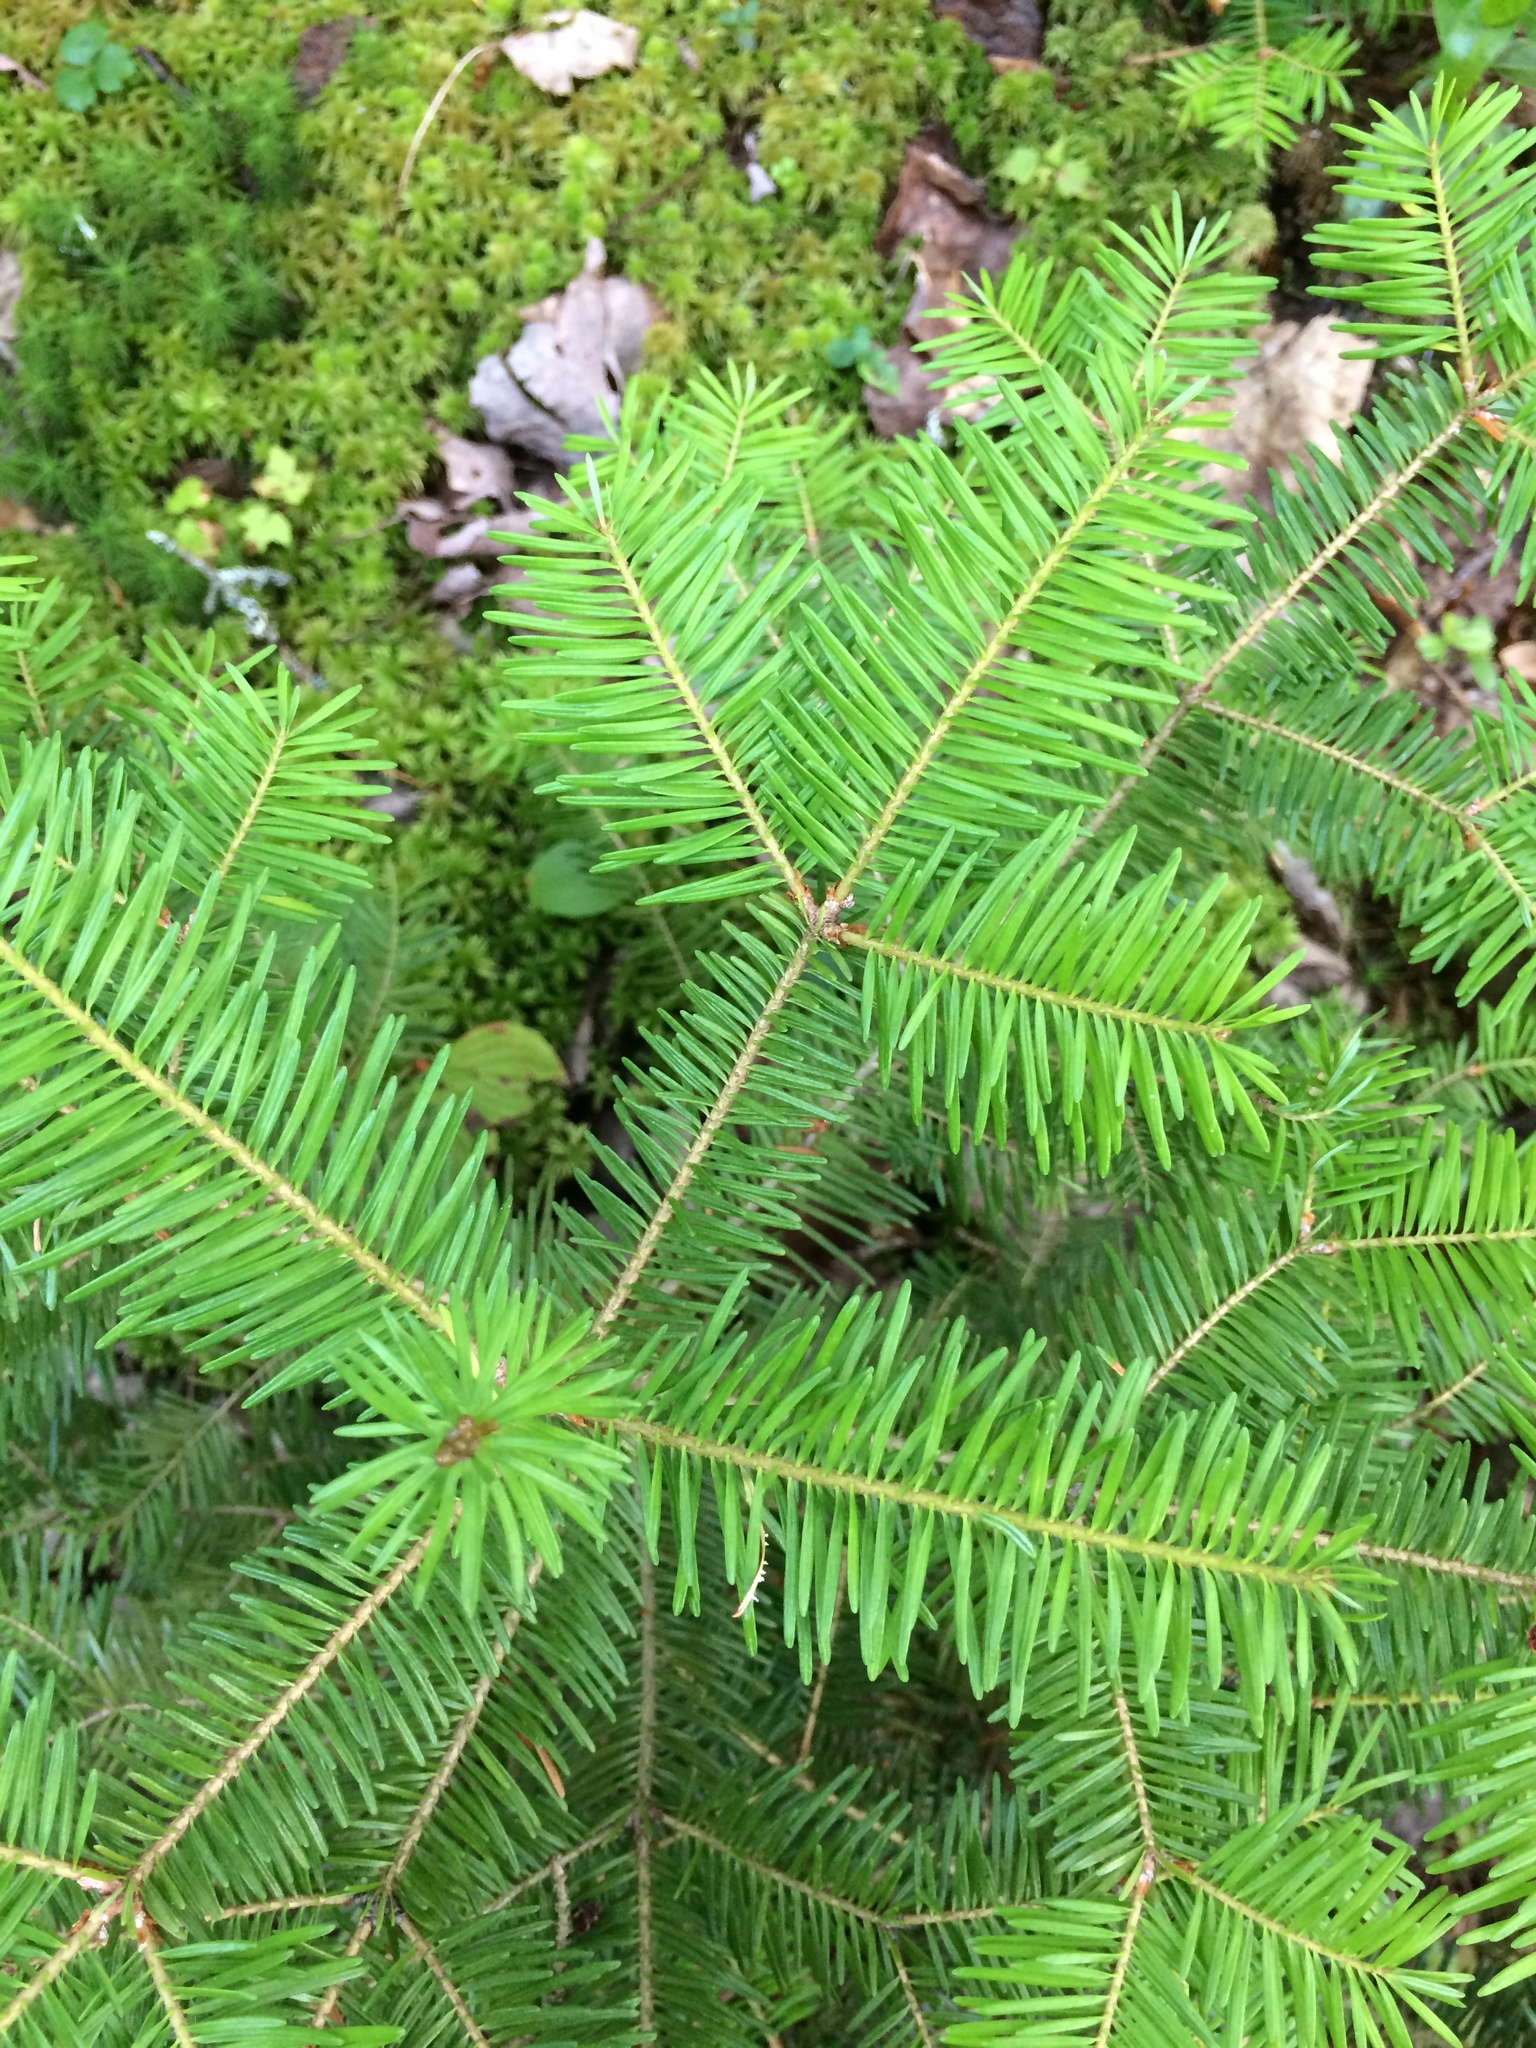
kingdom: Plantae
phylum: Tracheophyta
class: Pinopsida
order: Pinales
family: Pinaceae
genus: Abies
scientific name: Abies balsamea
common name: Balsam fir
